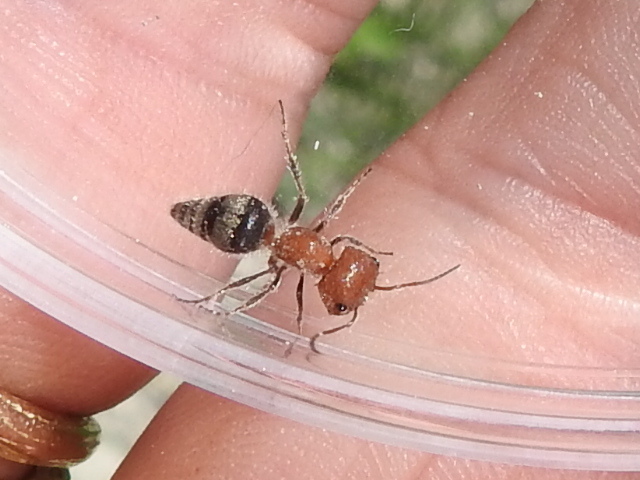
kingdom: Animalia
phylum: Arthropoda
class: Insecta
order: Hymenoptera
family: Mutillidae
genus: Myrmilloides
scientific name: Myrmilloides
